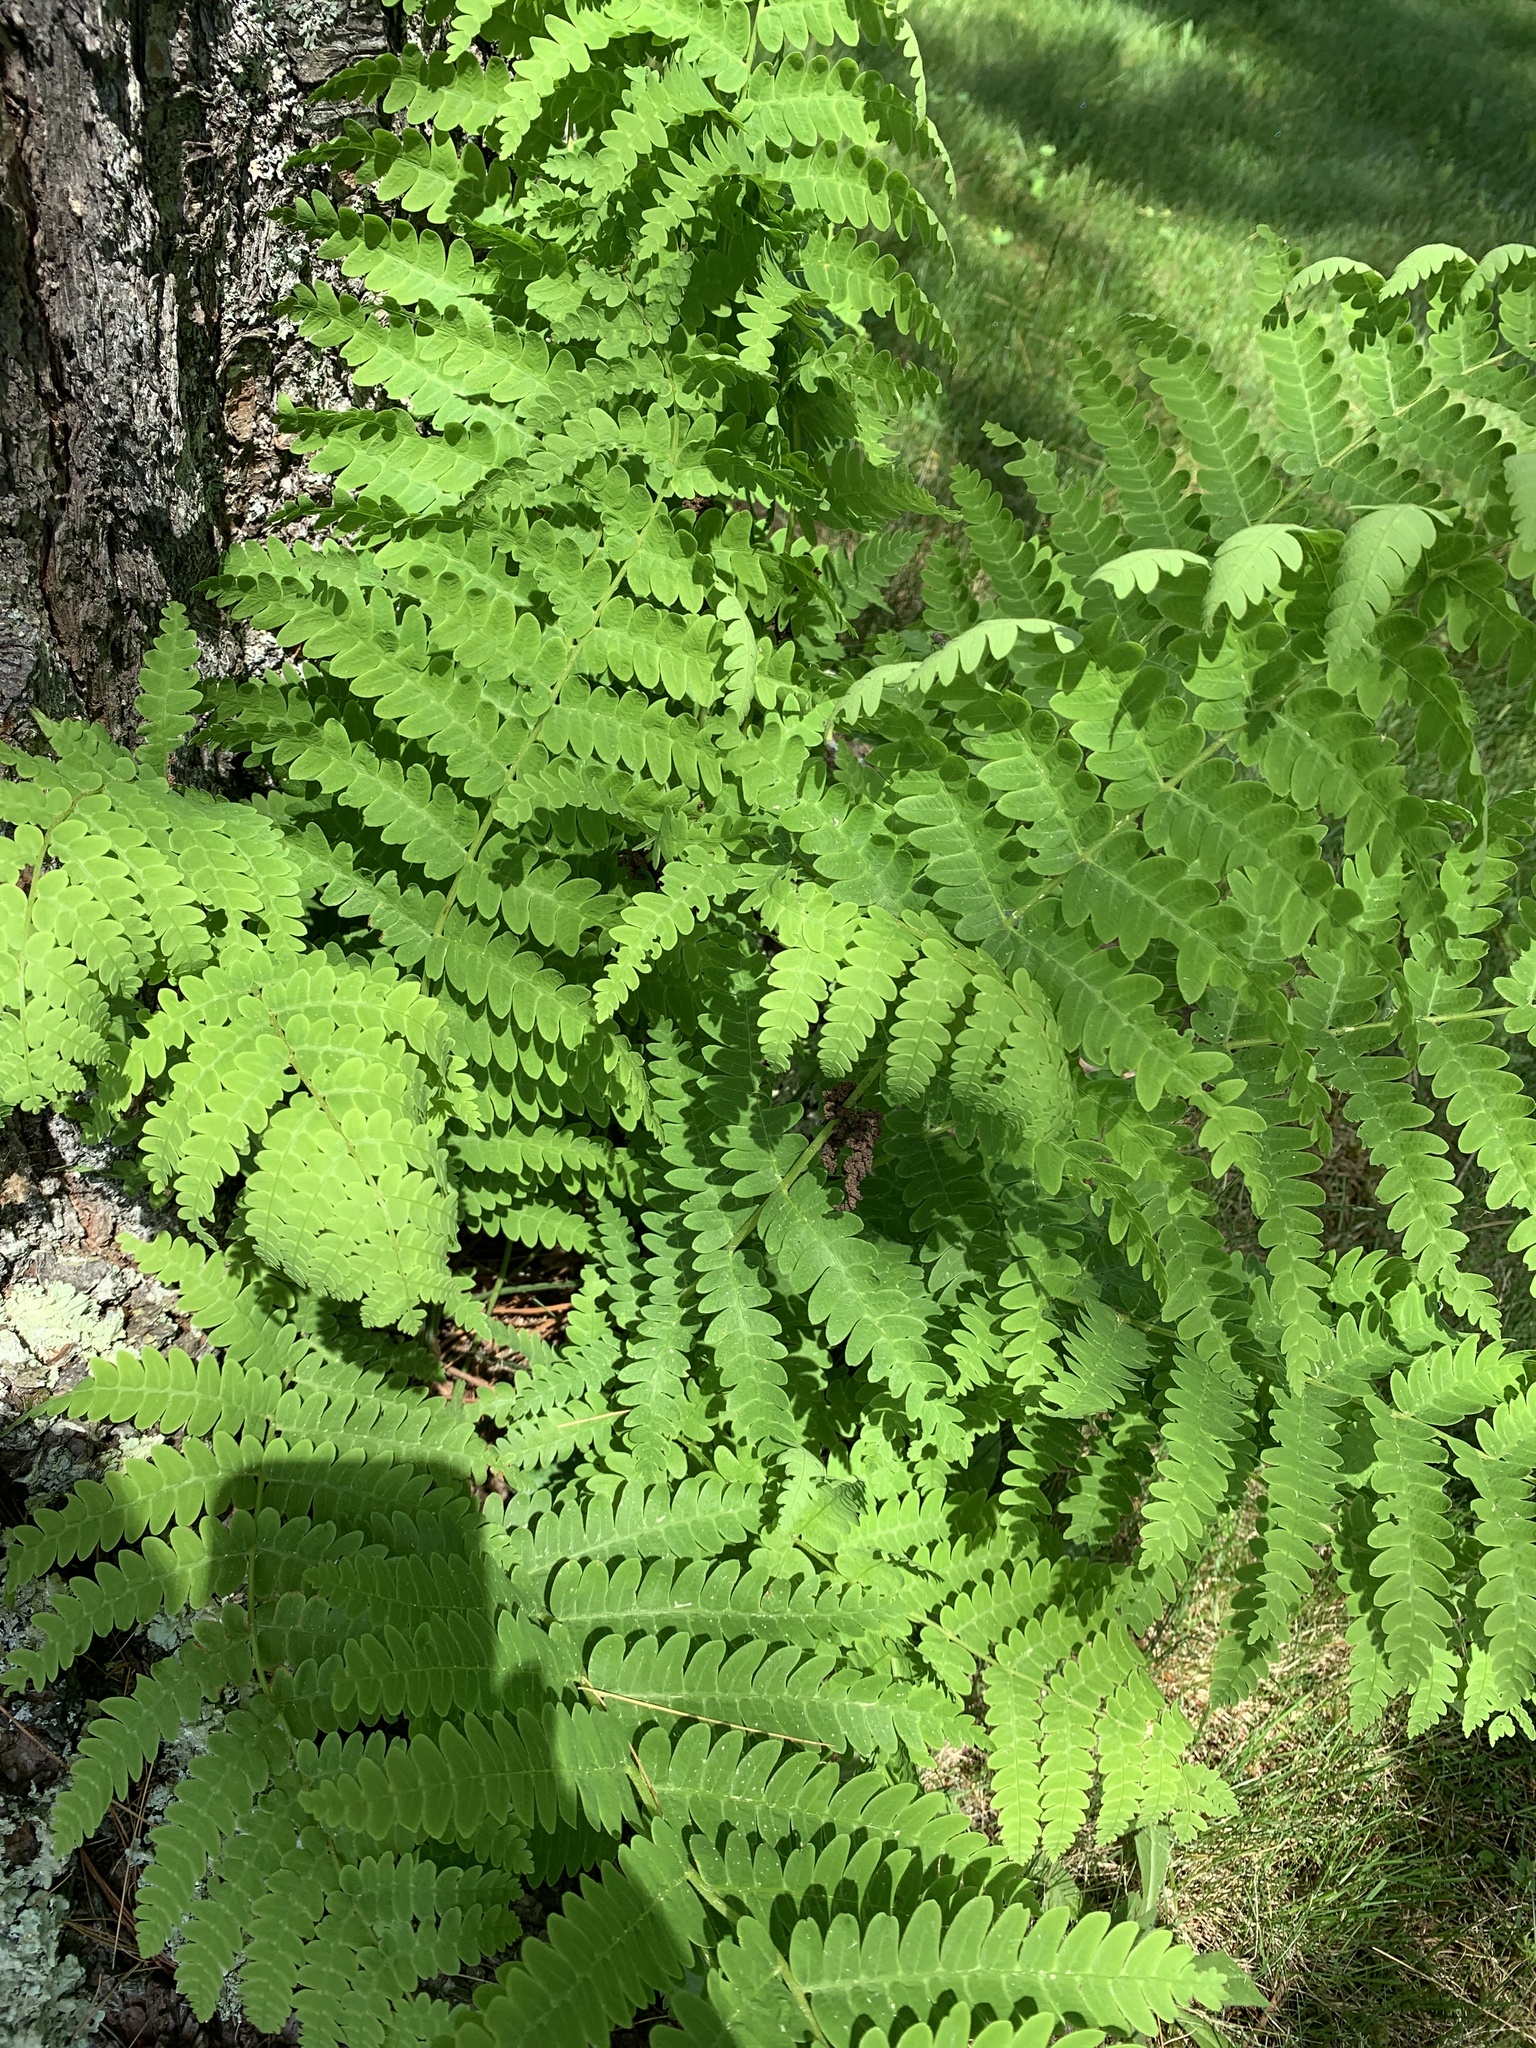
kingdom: Plantae
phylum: Tracheophyta
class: Polypodiopsida
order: Osmundales
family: Osmundaceae
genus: Claytosmunda
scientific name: Claytosmunda claytoniana
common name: Clayton's fern
